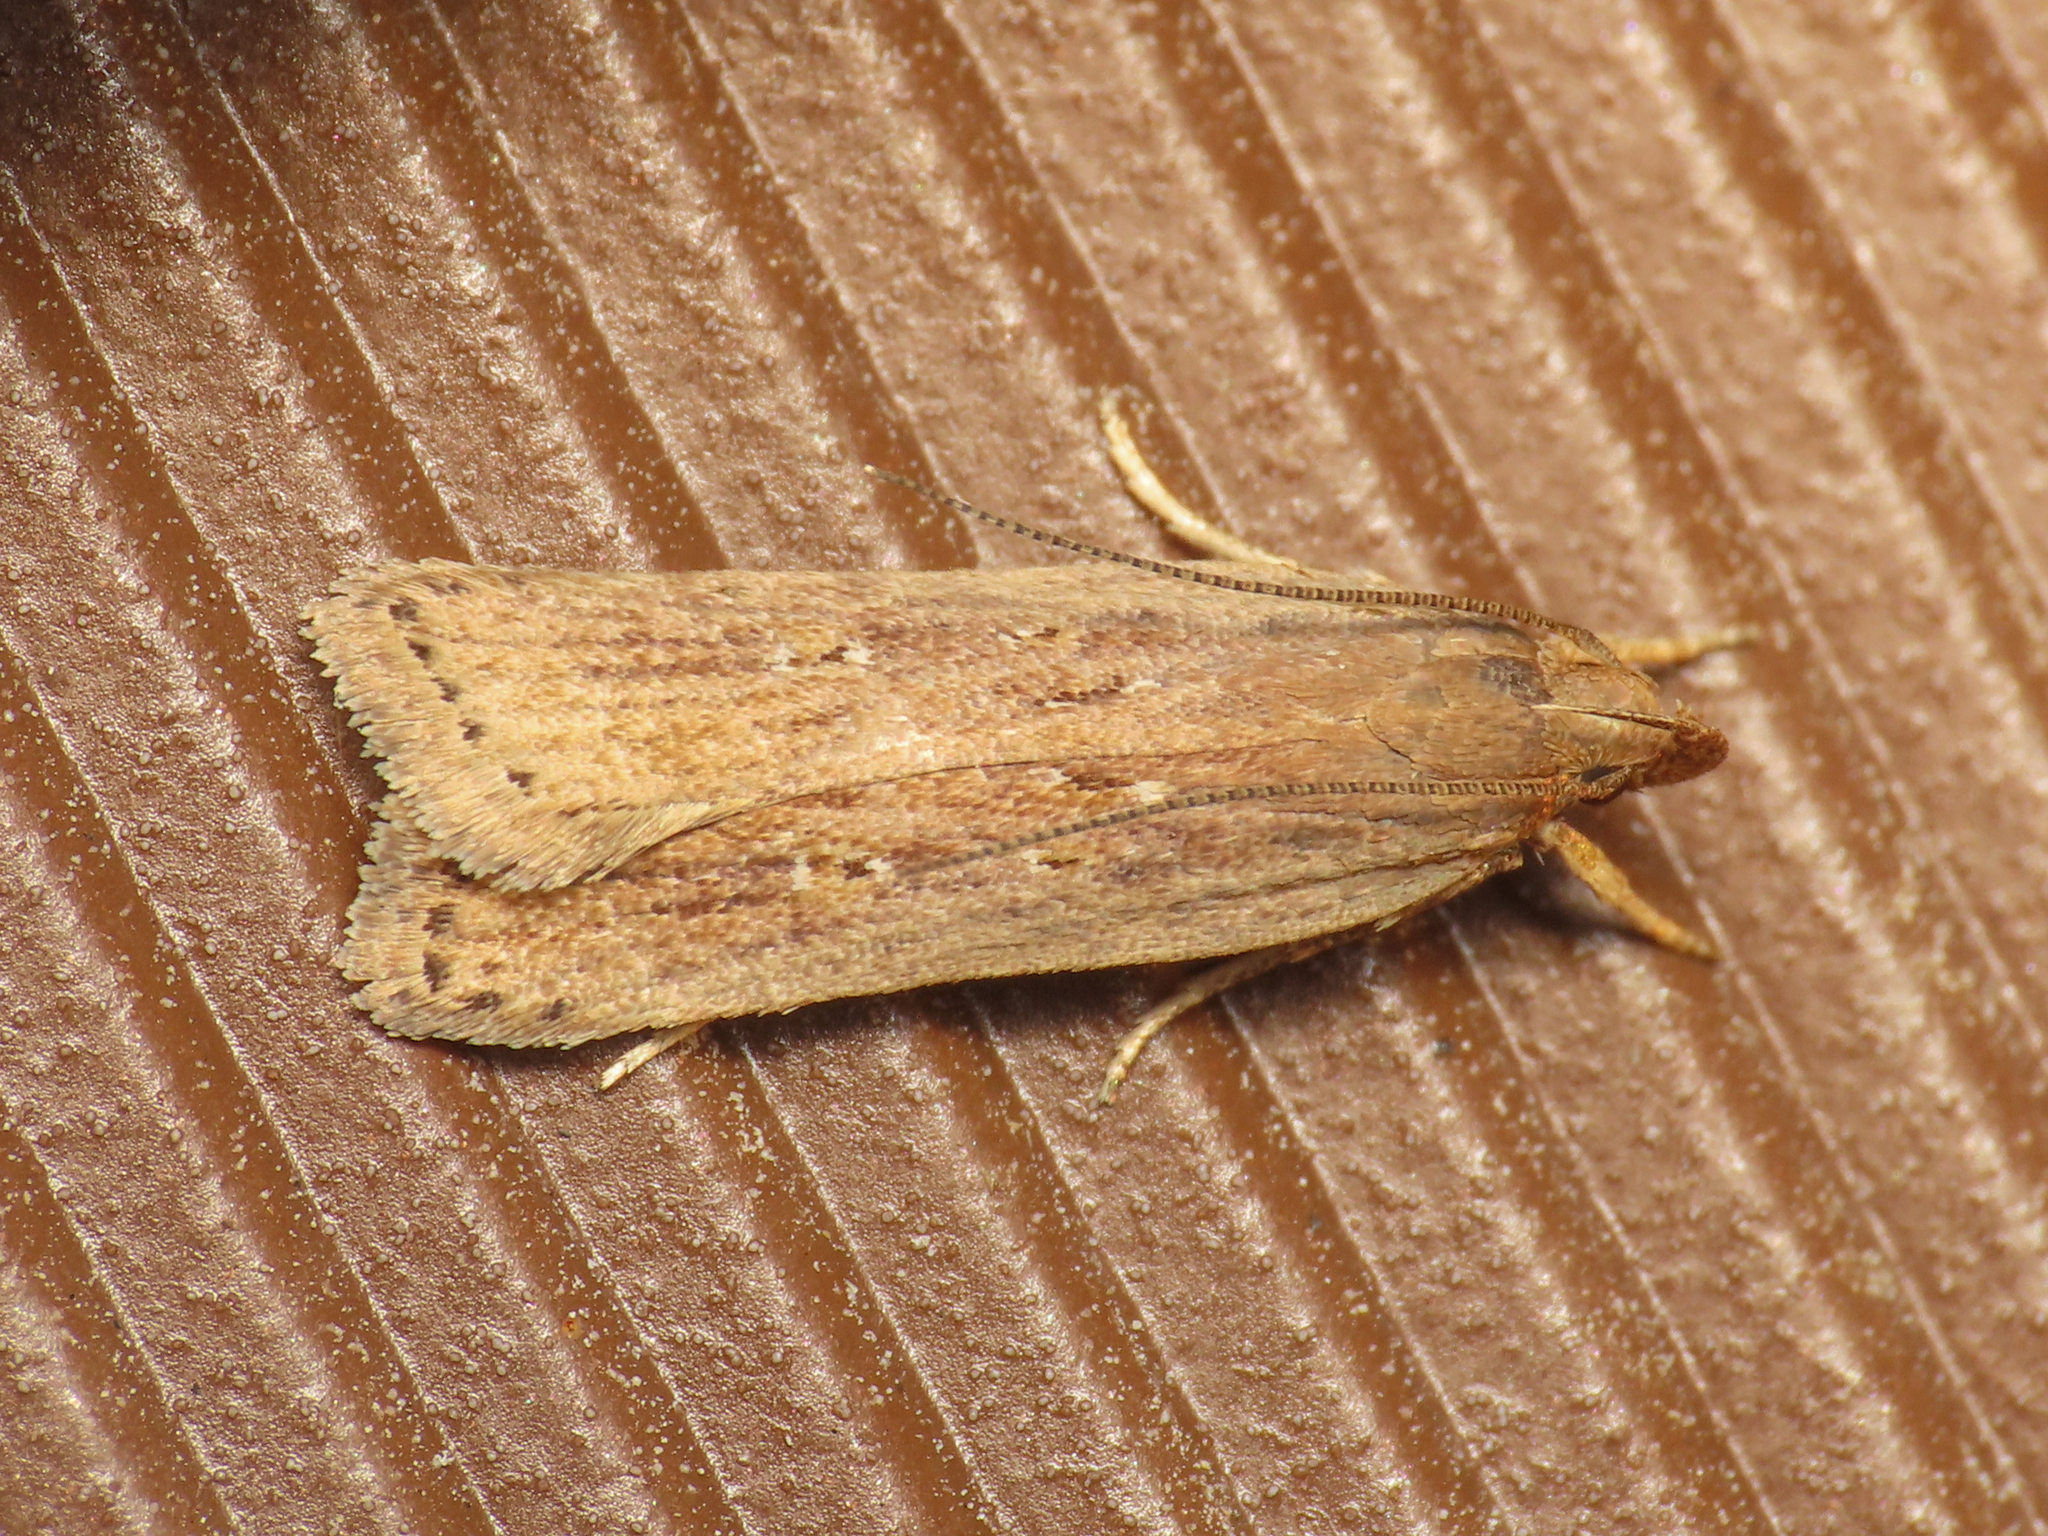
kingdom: Animalia
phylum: Arthropoda
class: Insecta
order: Lepidoptera
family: Gelechiidae
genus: Helcystogramma
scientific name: Helcystogramma triannulella
